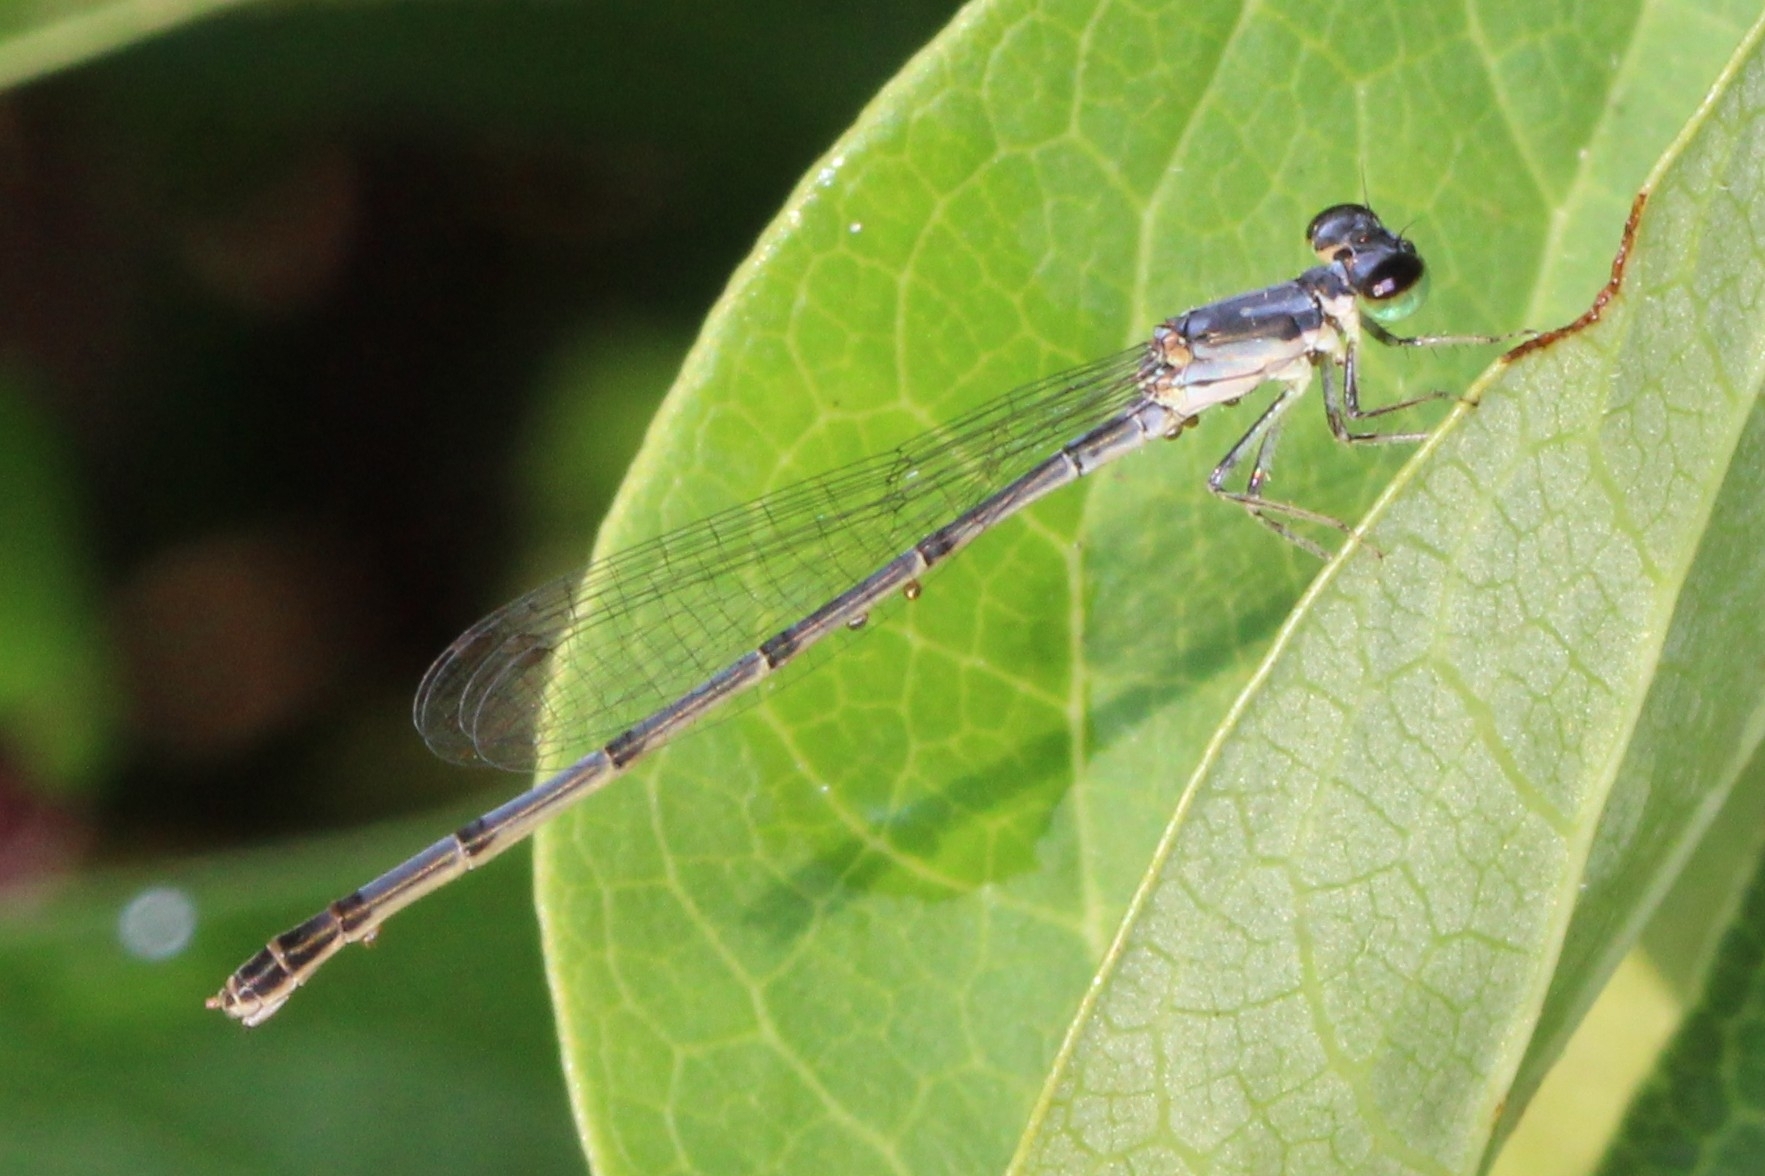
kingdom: Animalia
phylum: Arthropoda
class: Insecta
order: Odonata
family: Coenagrionidae
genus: Ischnura
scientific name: Ischnura posita
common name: Fragile forktail
